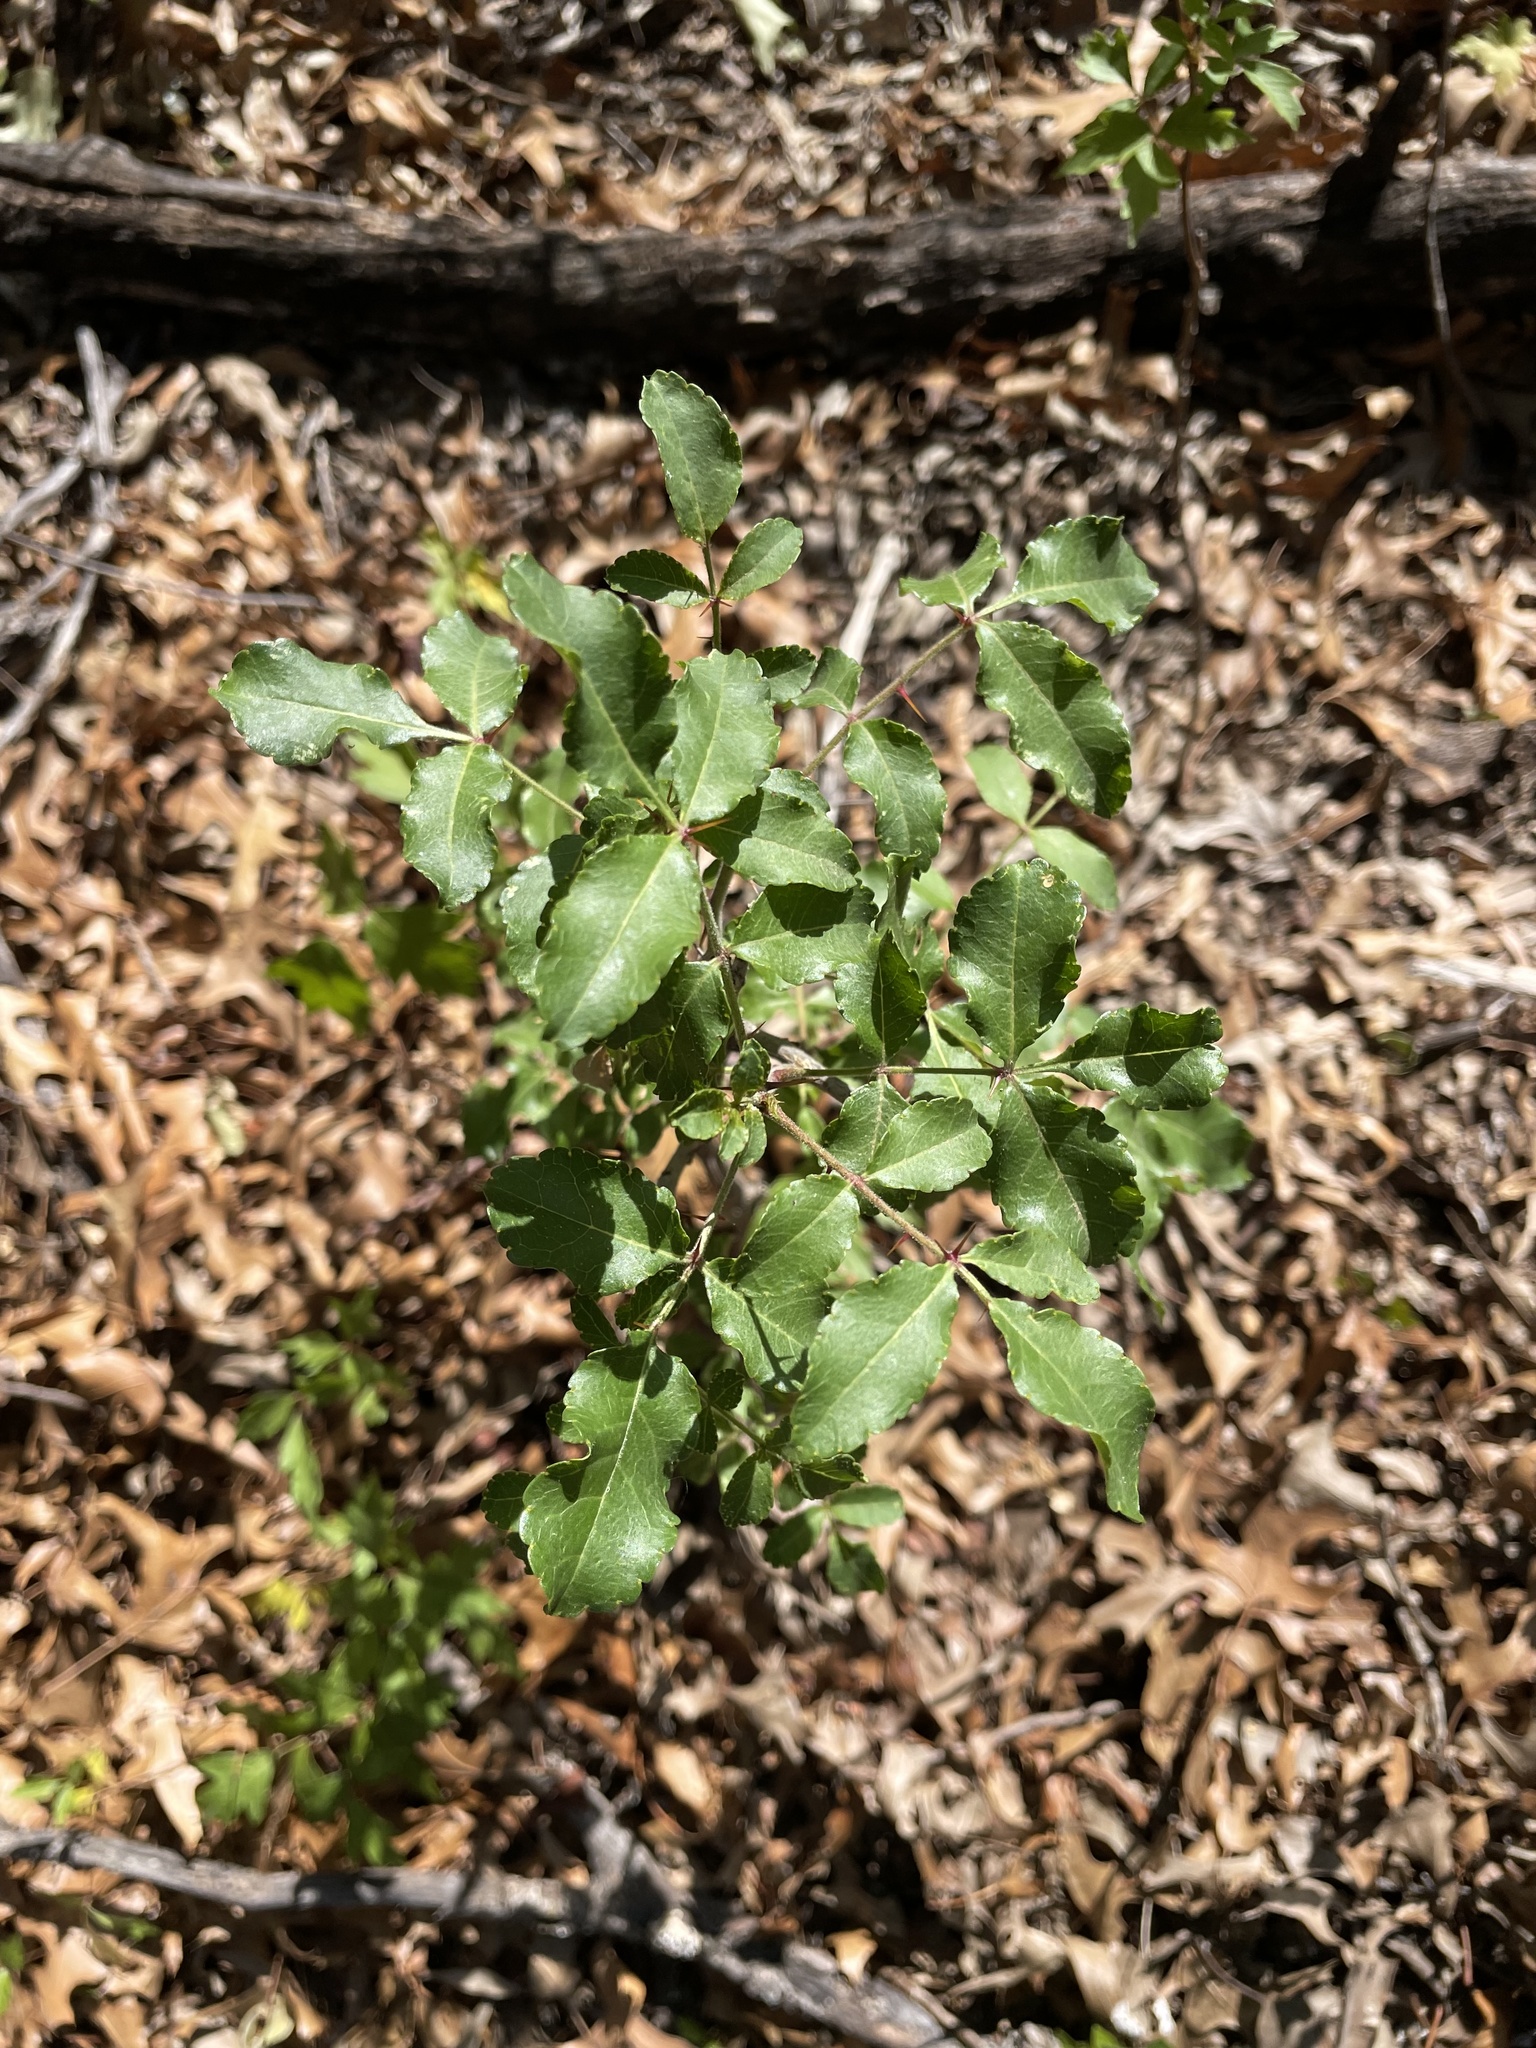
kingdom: Plantae
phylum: Tracheophyta
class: Magnoliopsida
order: Sapindales
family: Rutaceae
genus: Zanthoxylum
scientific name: Zanthoxylum clava-herculis
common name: Hercules'-club
